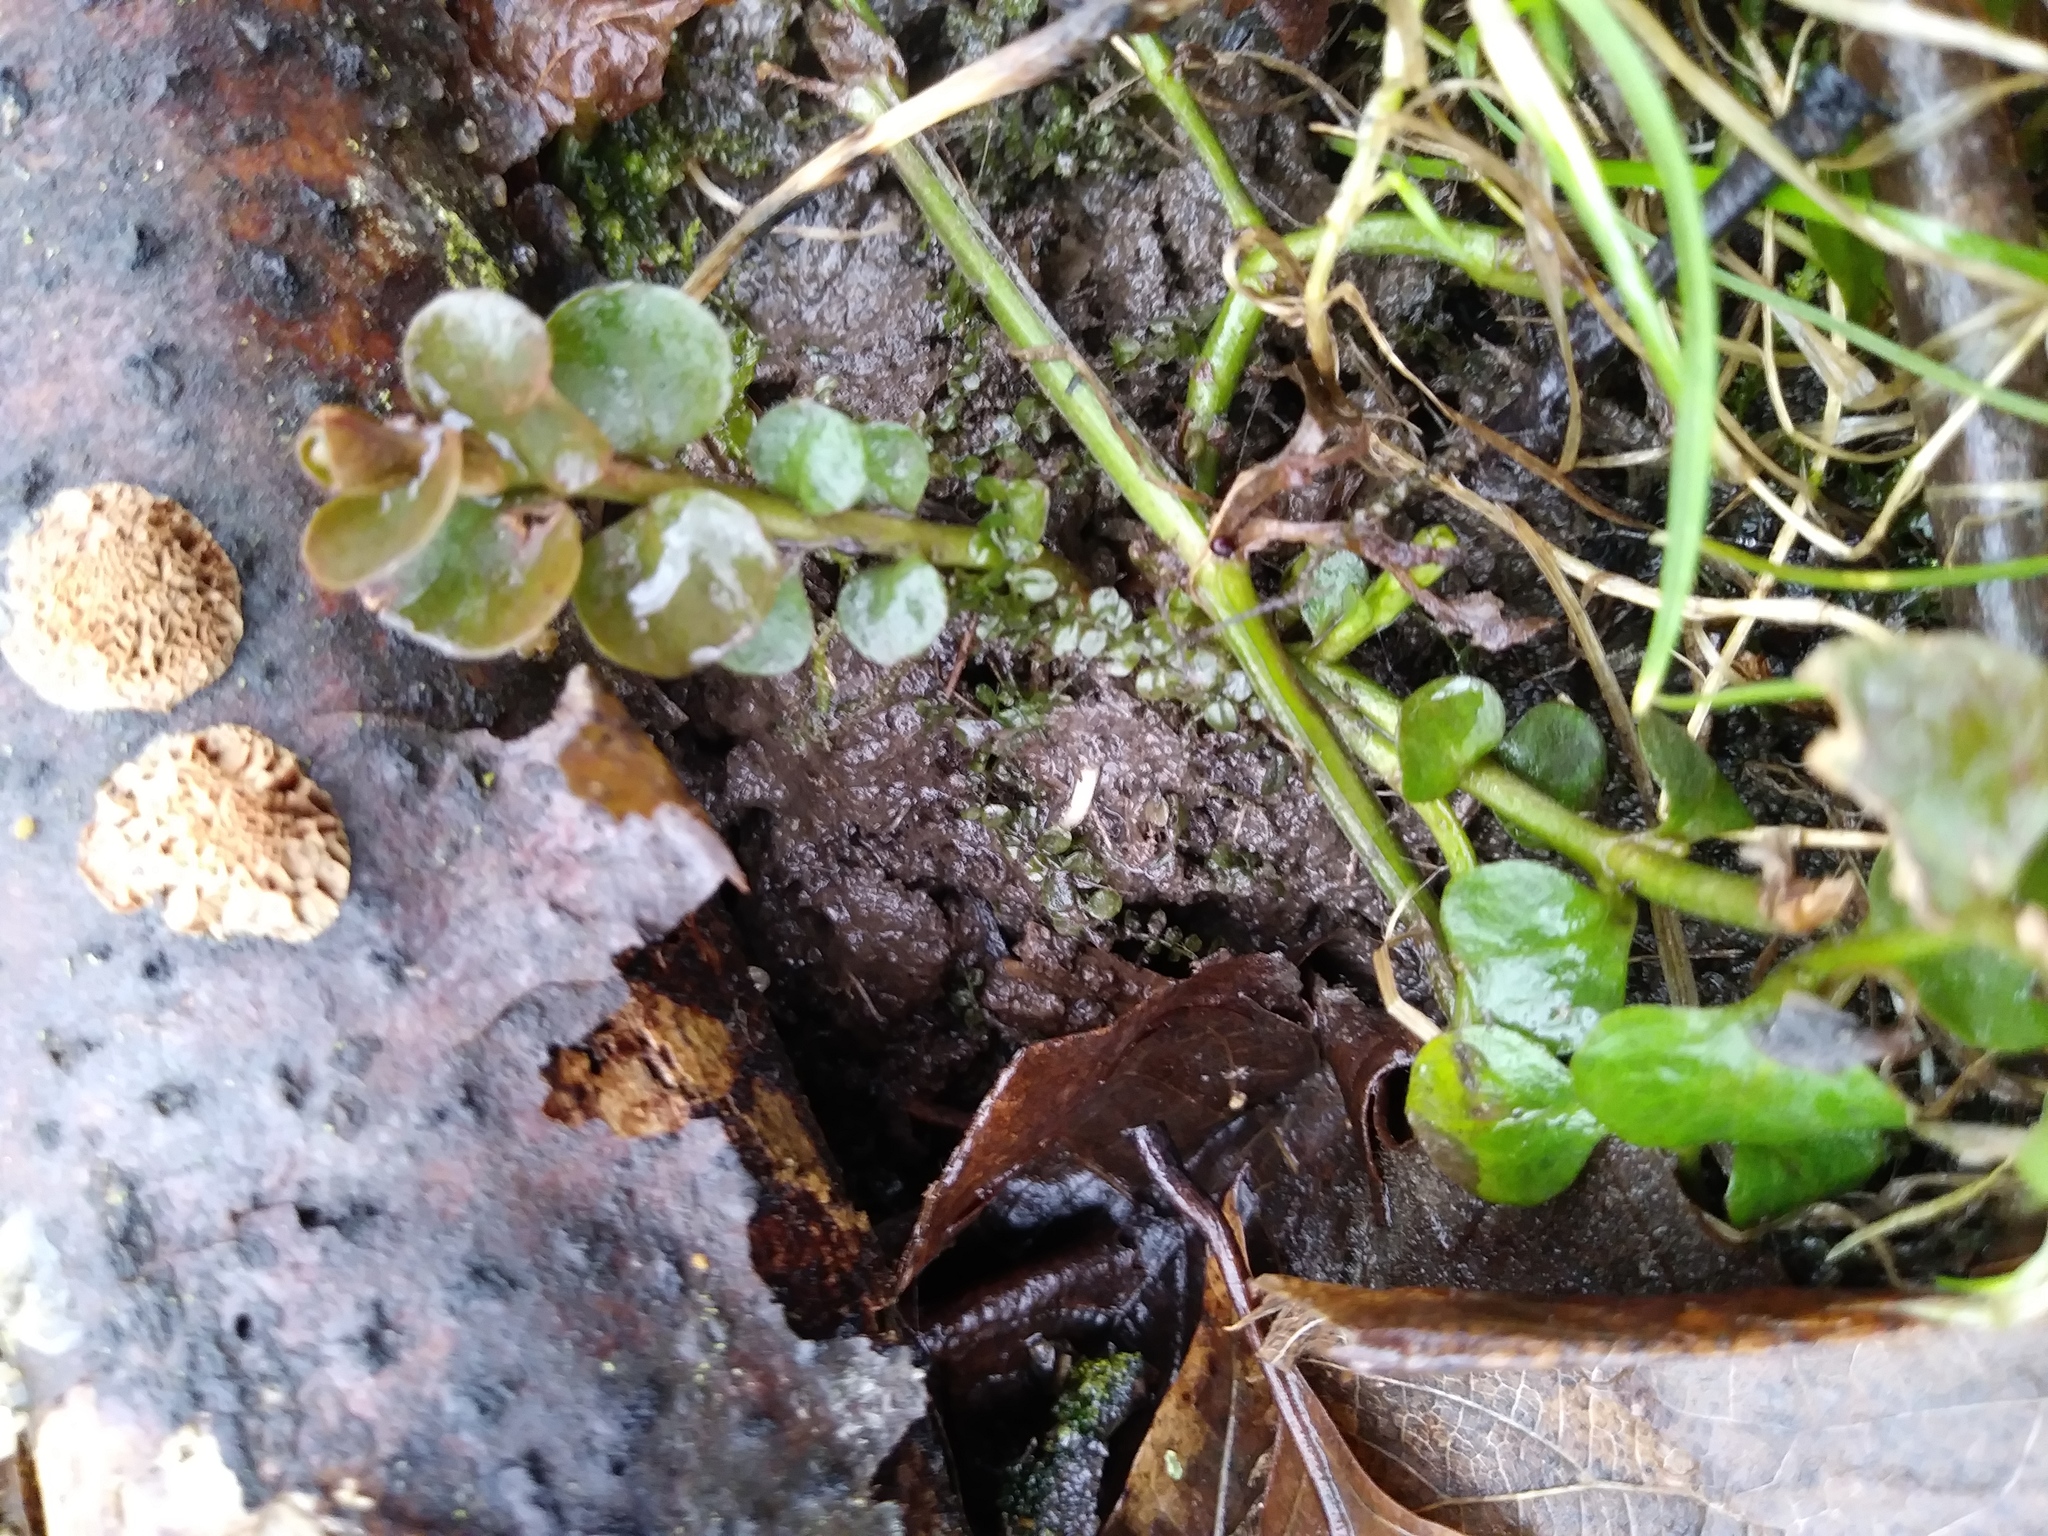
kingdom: Plantae
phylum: Tracheophyta
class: Magnoliopsida
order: Ericales
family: Primulaceae
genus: Lysimachia
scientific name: Lysimachia nummularia
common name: Moneywort
